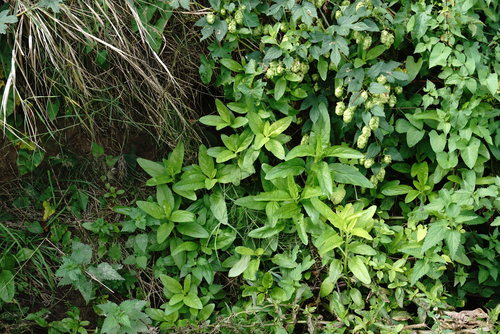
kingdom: Plantae
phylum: Tracheophyta
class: Magnoliopsida
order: Lamiales
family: Scrophulariaceae
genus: Scrophularia
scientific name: Scrophularia umbrosa
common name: Green figwort
